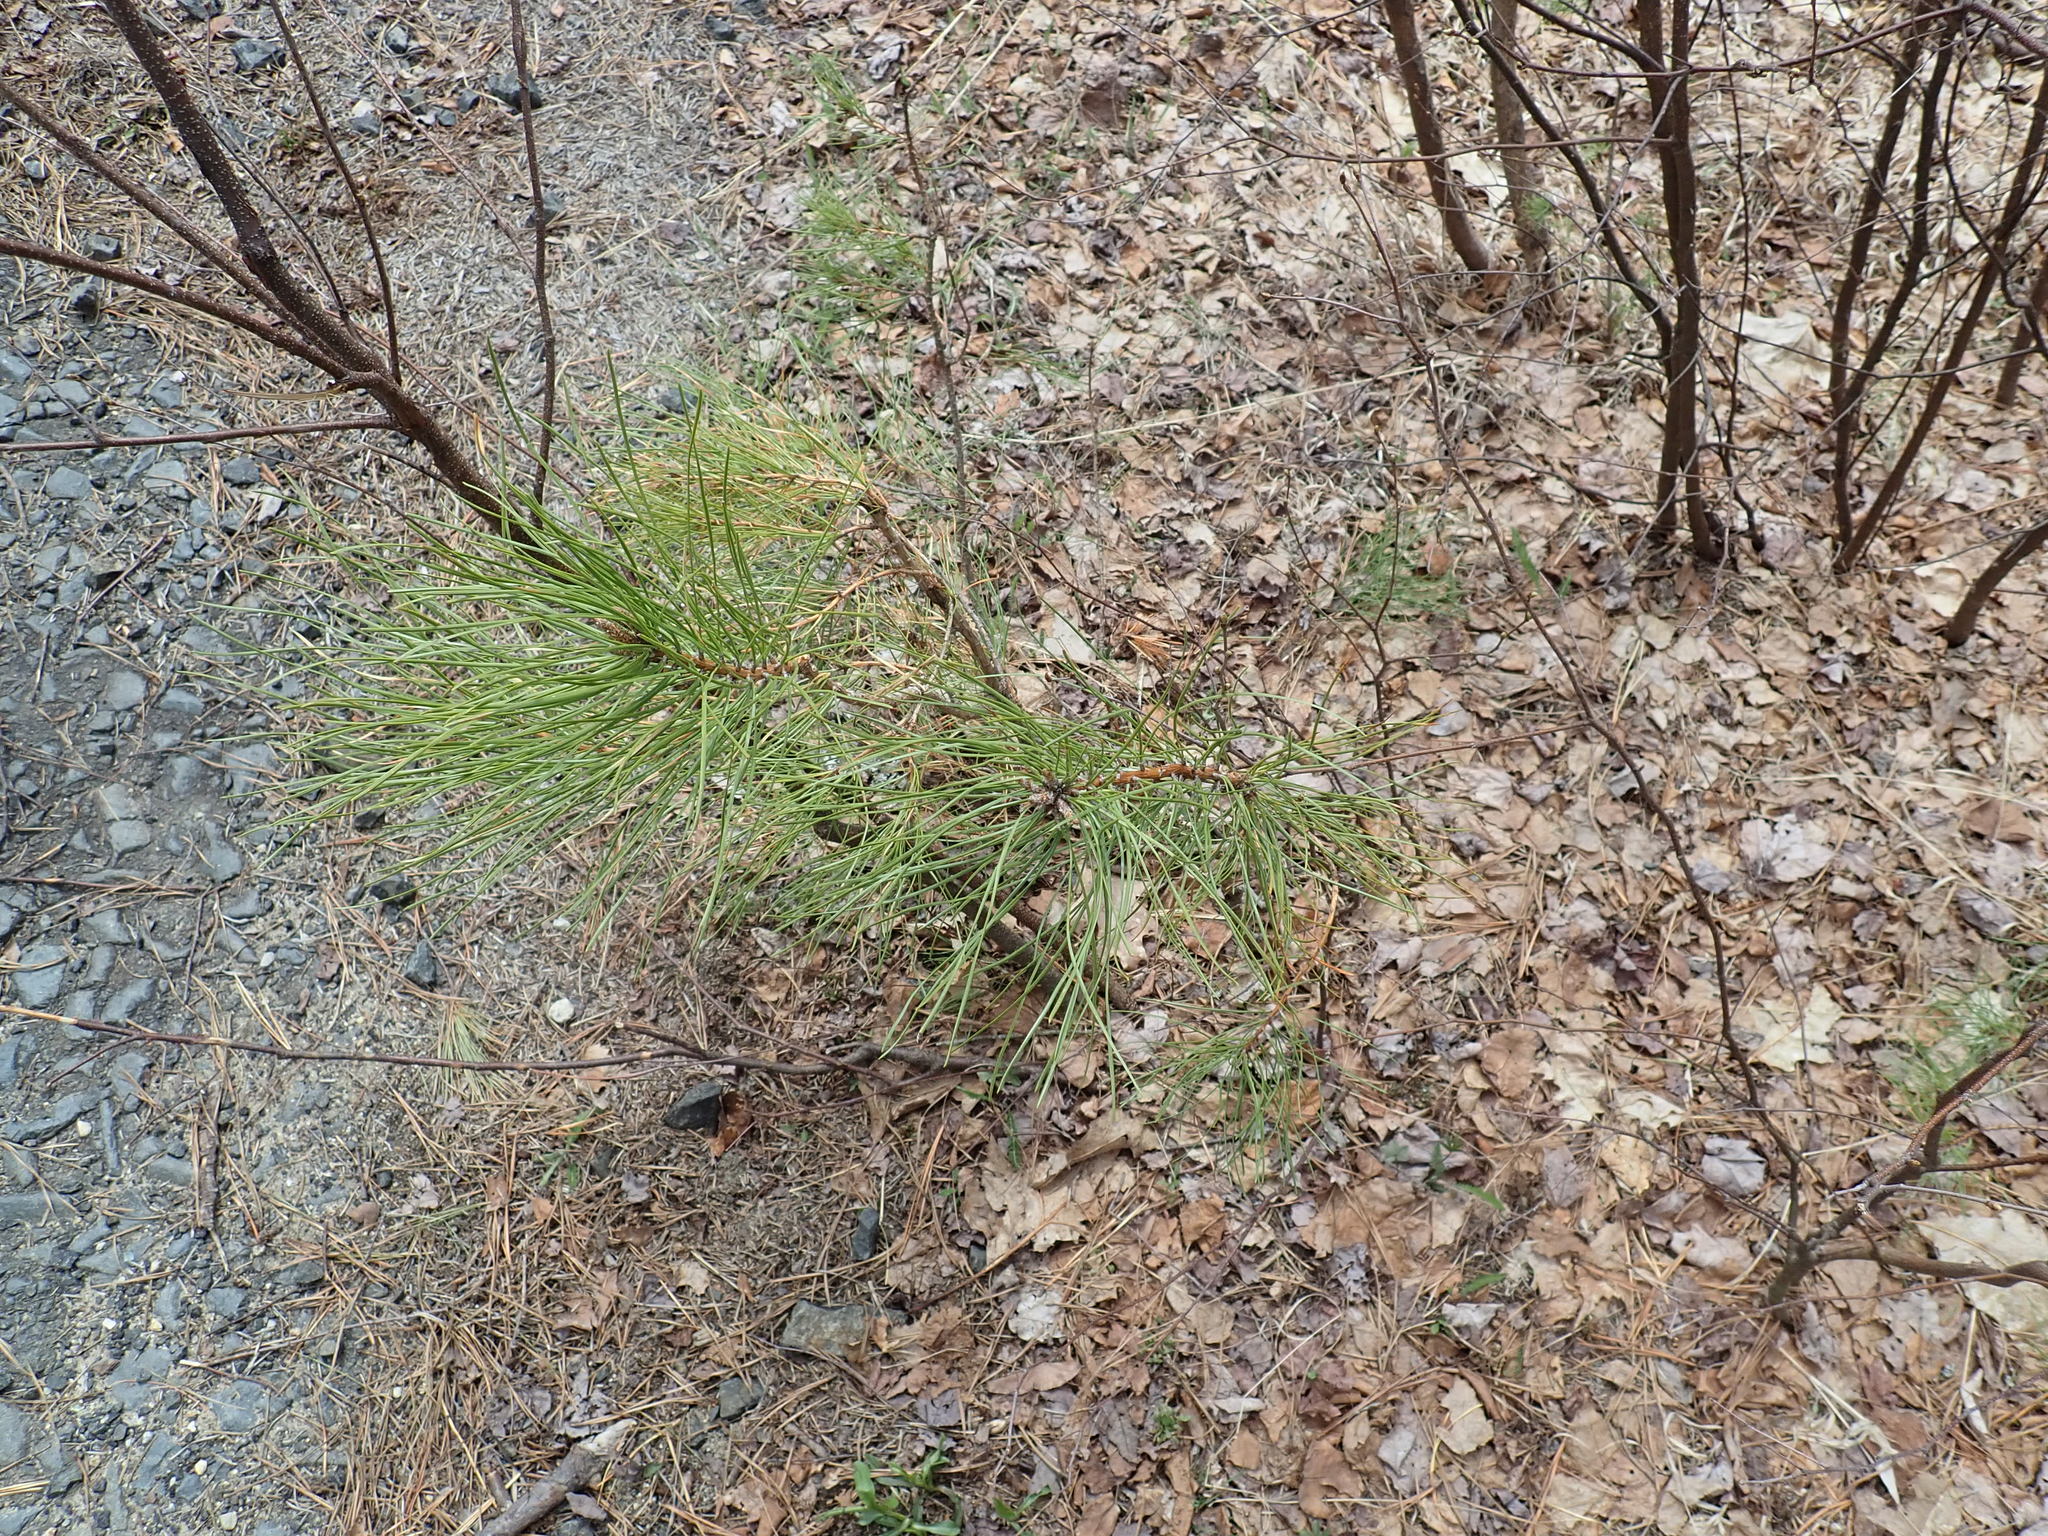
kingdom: Plantae
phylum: Tracheophyta
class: Pinopsida
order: Pinales
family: Pinaceae
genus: Pinus
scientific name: Pinus rigida
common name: Pitch pine
